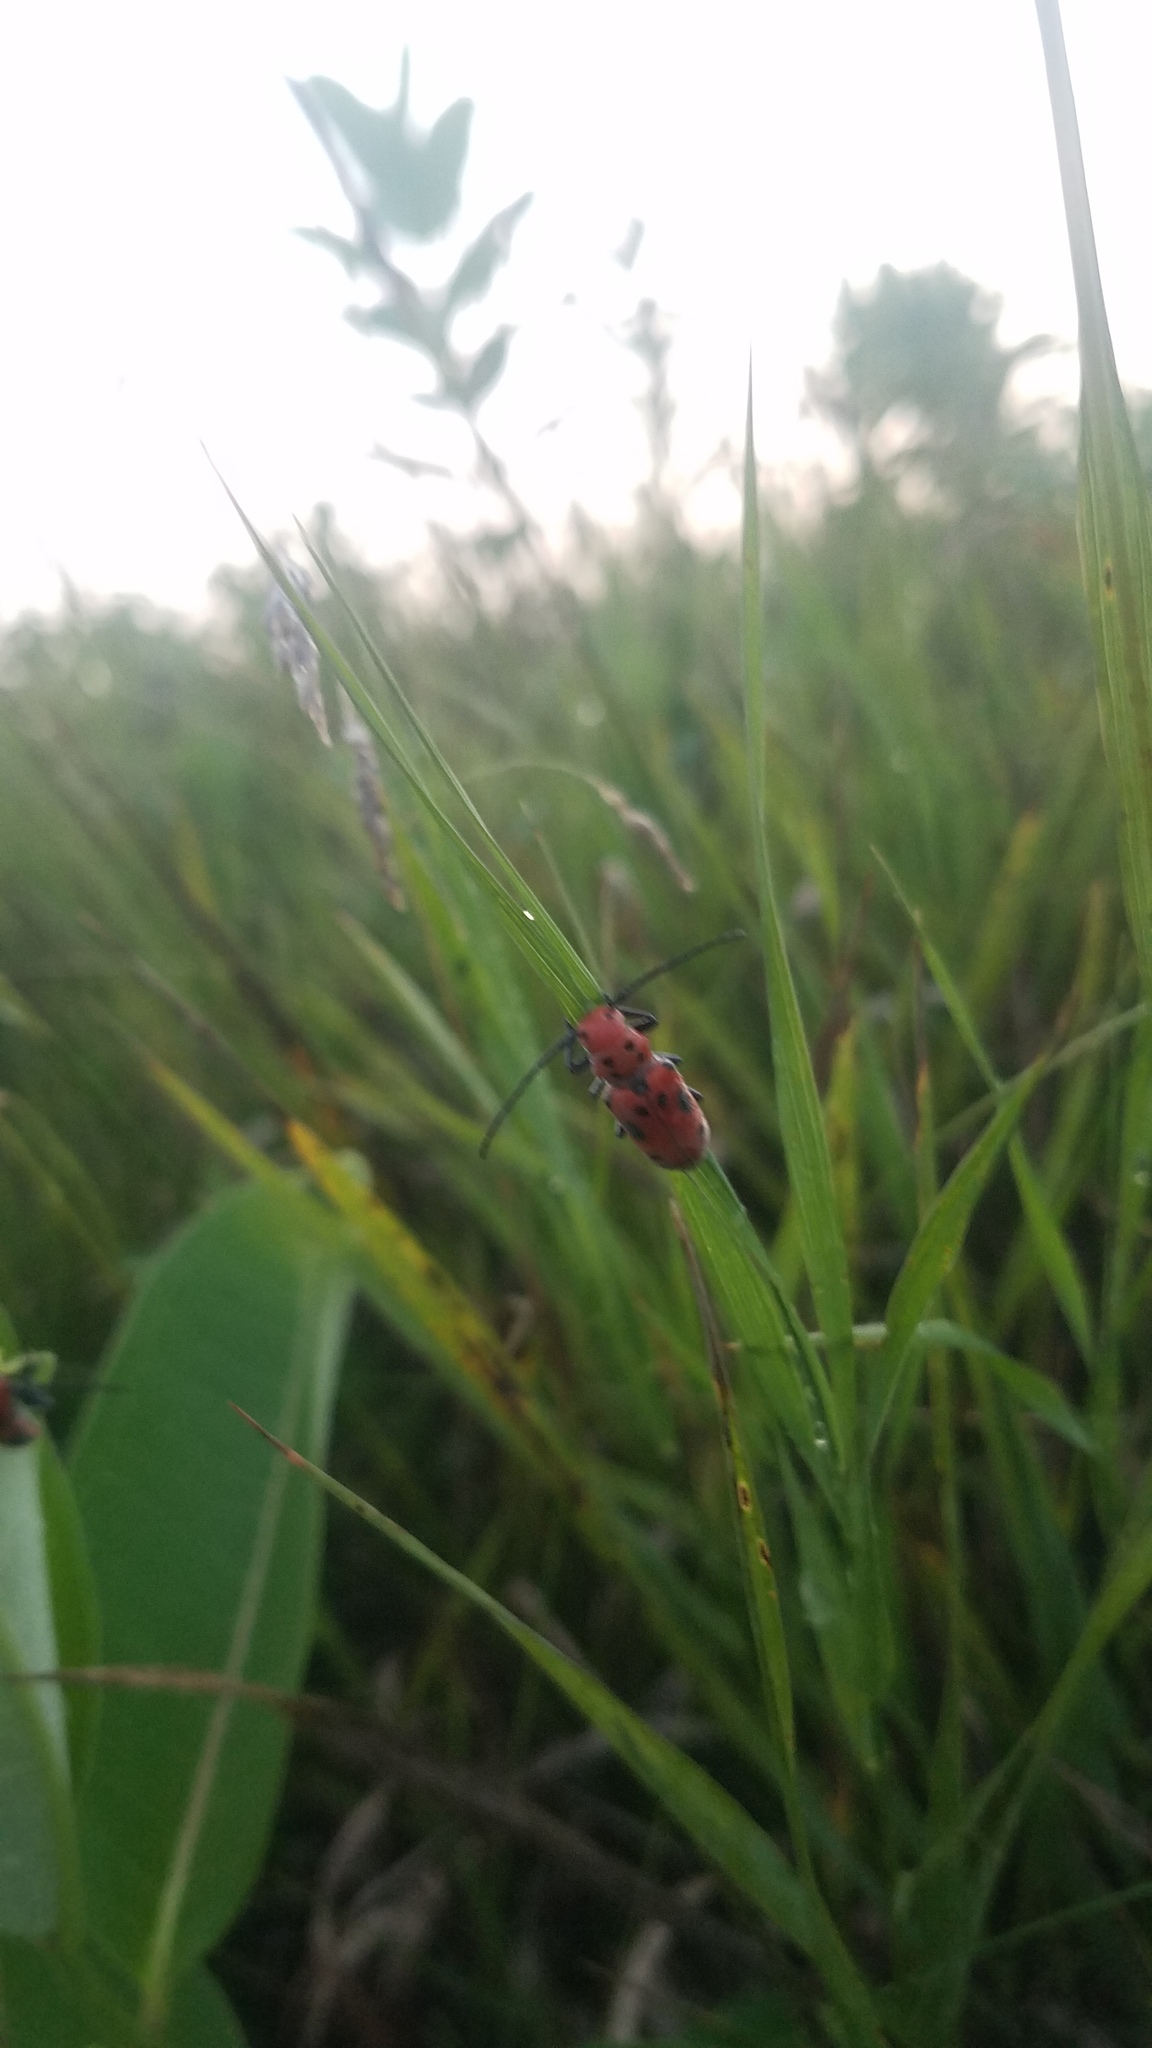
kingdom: Animalia
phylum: Arthropoda
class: Insecta
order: Coleoptera
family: Cerambycidae
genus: Tetraopes
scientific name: Tetraopes tetrophthalmus
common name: Red milkweed beetle
